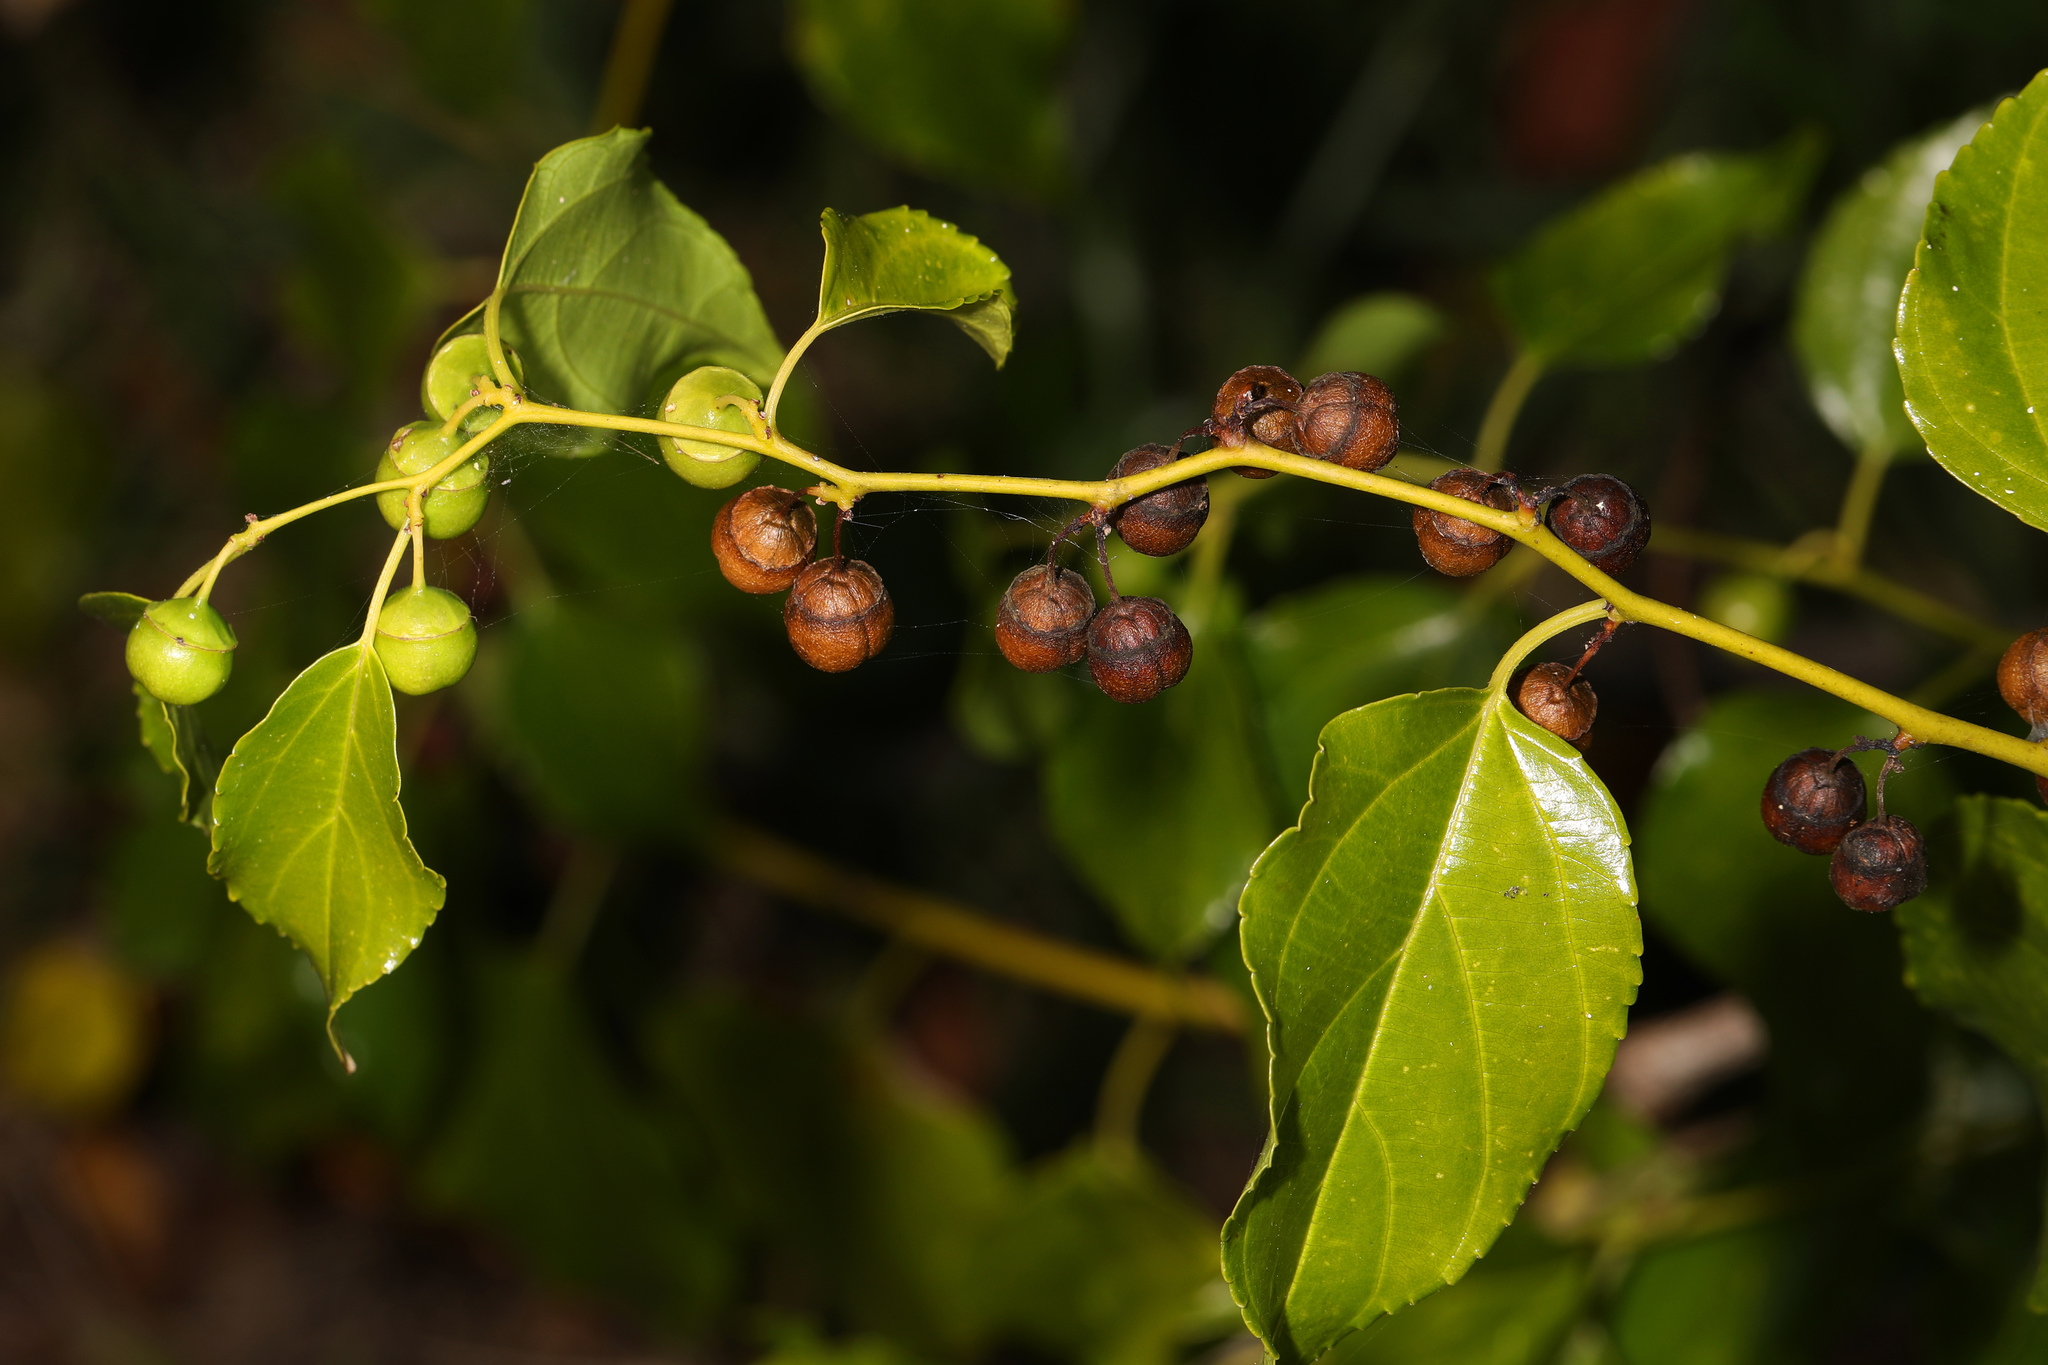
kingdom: Plantae
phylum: Tracheophyta
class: Magnoliopsida
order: Rosales
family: Rhamnaceae
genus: Colubrina
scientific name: Colubrina asiatica
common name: Asian nakedwood
